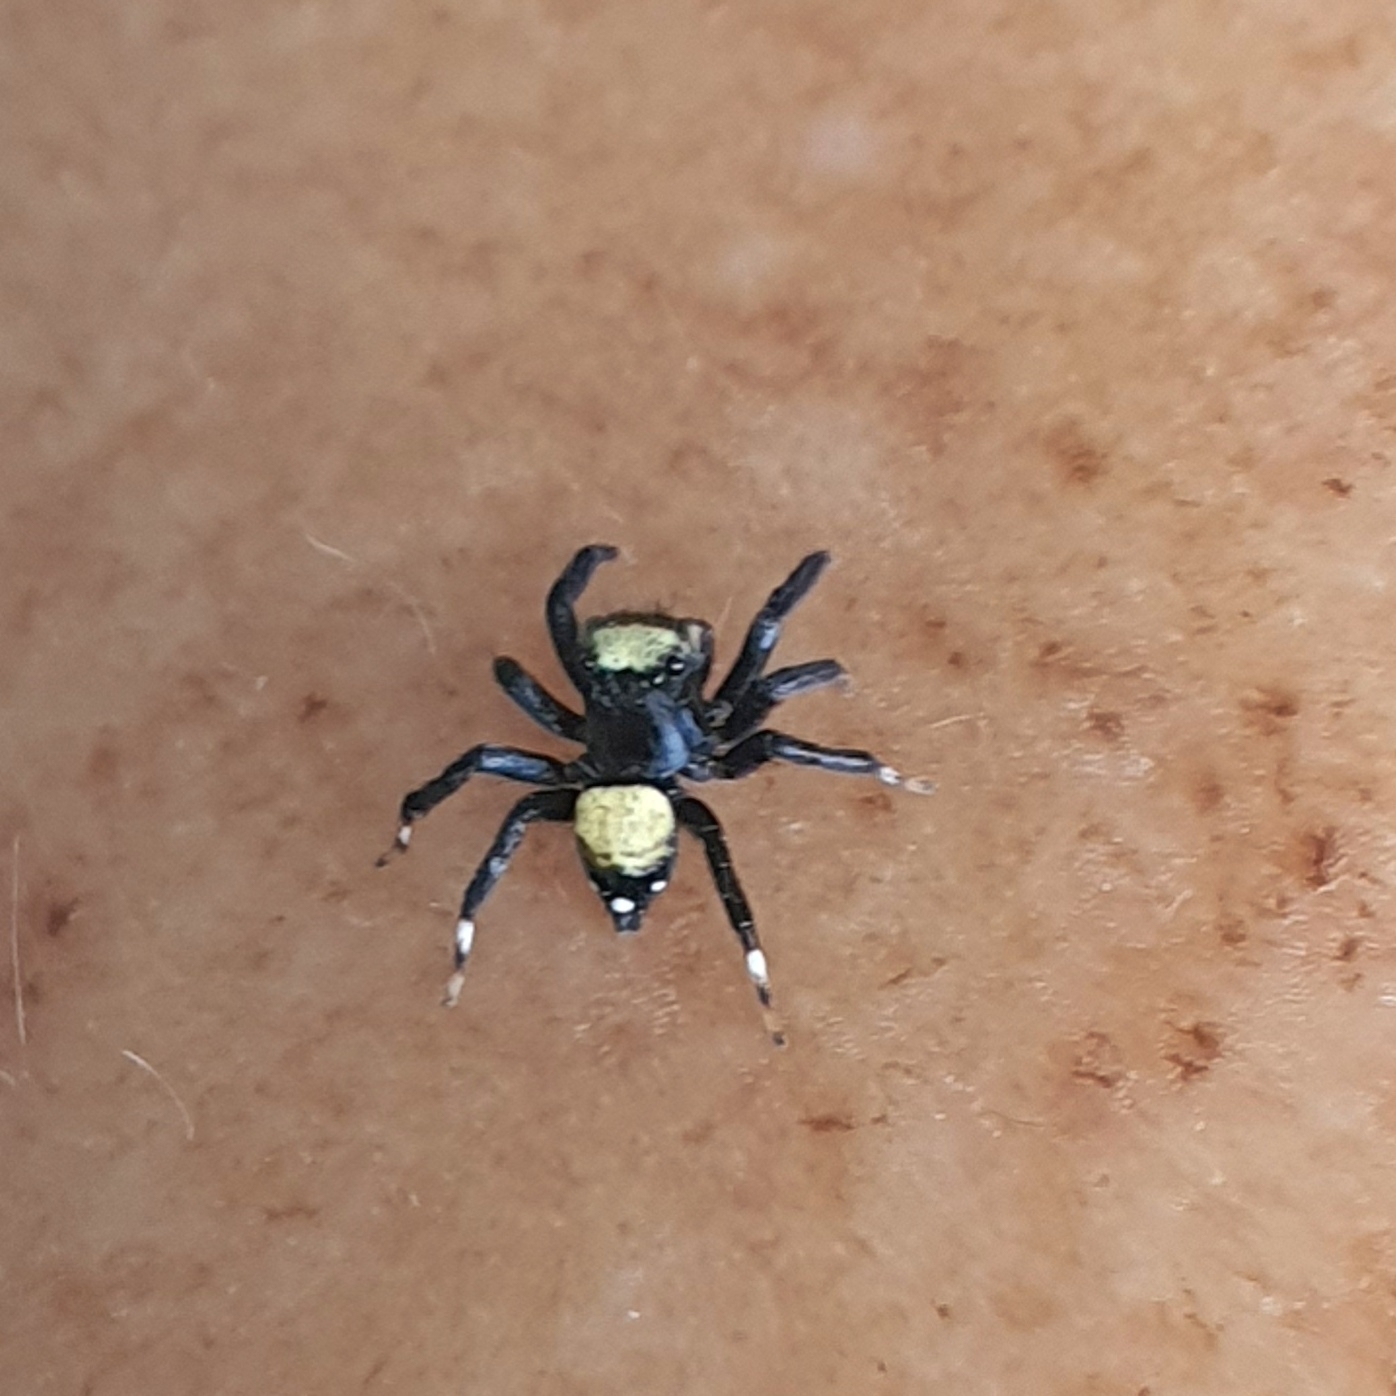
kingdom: Animalia
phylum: Arthropoda
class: Arachnida
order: Araneae
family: Salticidae
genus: Thorelliola
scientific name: Thorelliola ensifera
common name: Jumping spider
